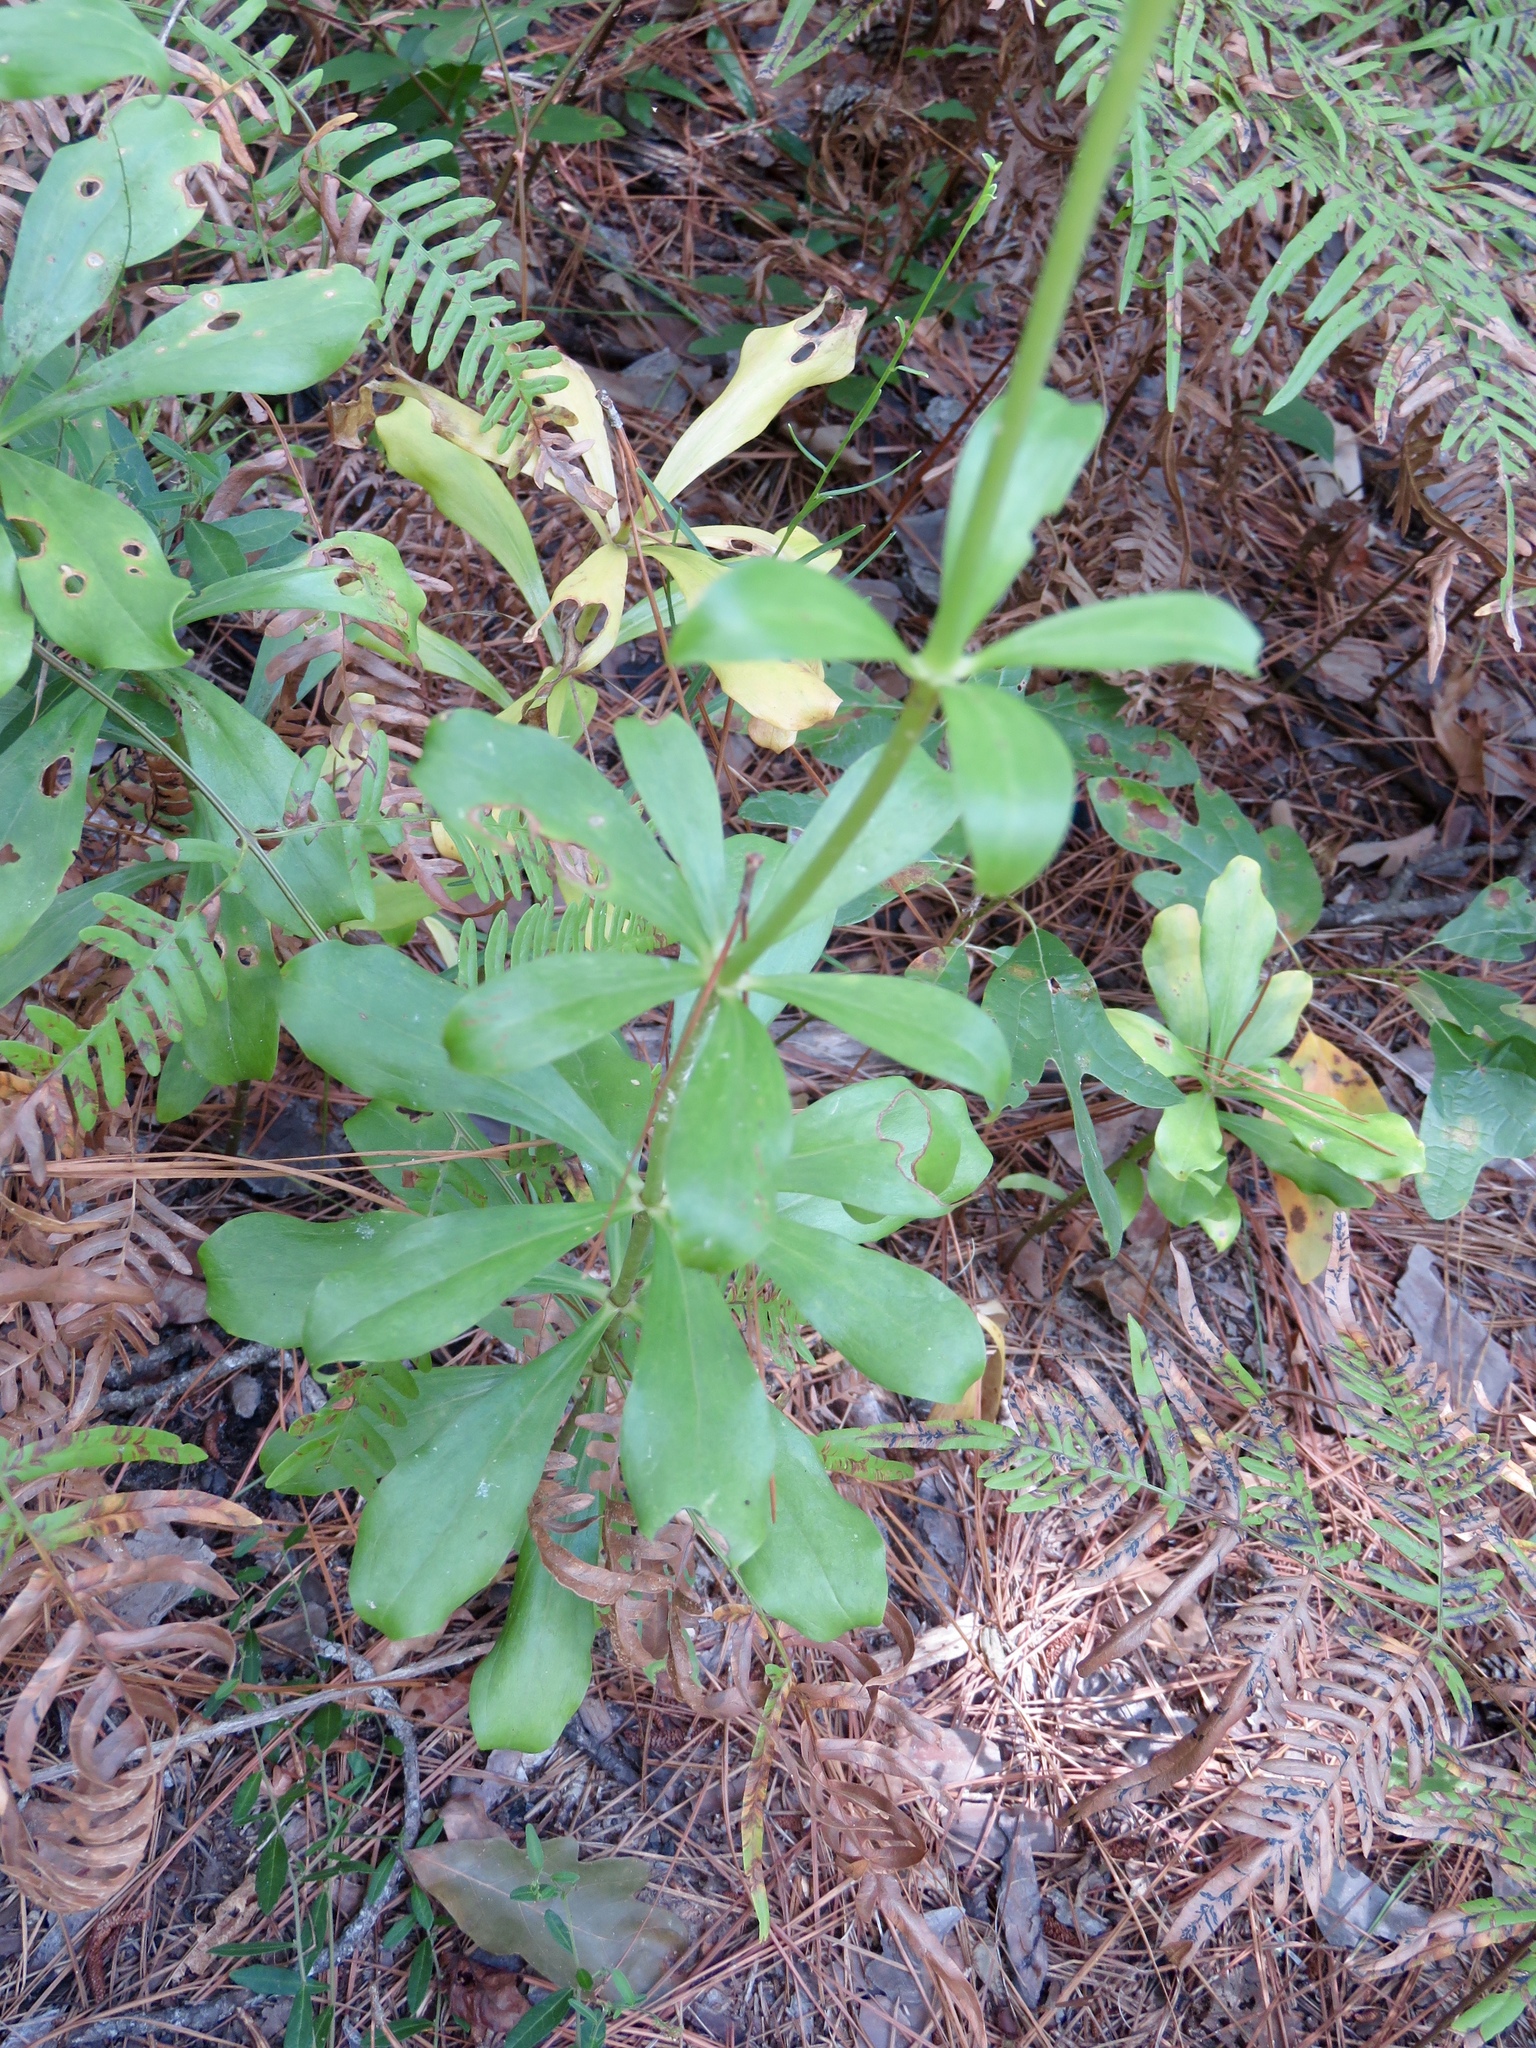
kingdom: Plantae
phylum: Tracheophyta
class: Liliopsida
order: Liliales
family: Liliaceae
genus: Lilium
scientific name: Lilium michauxii
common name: Carolina lily
